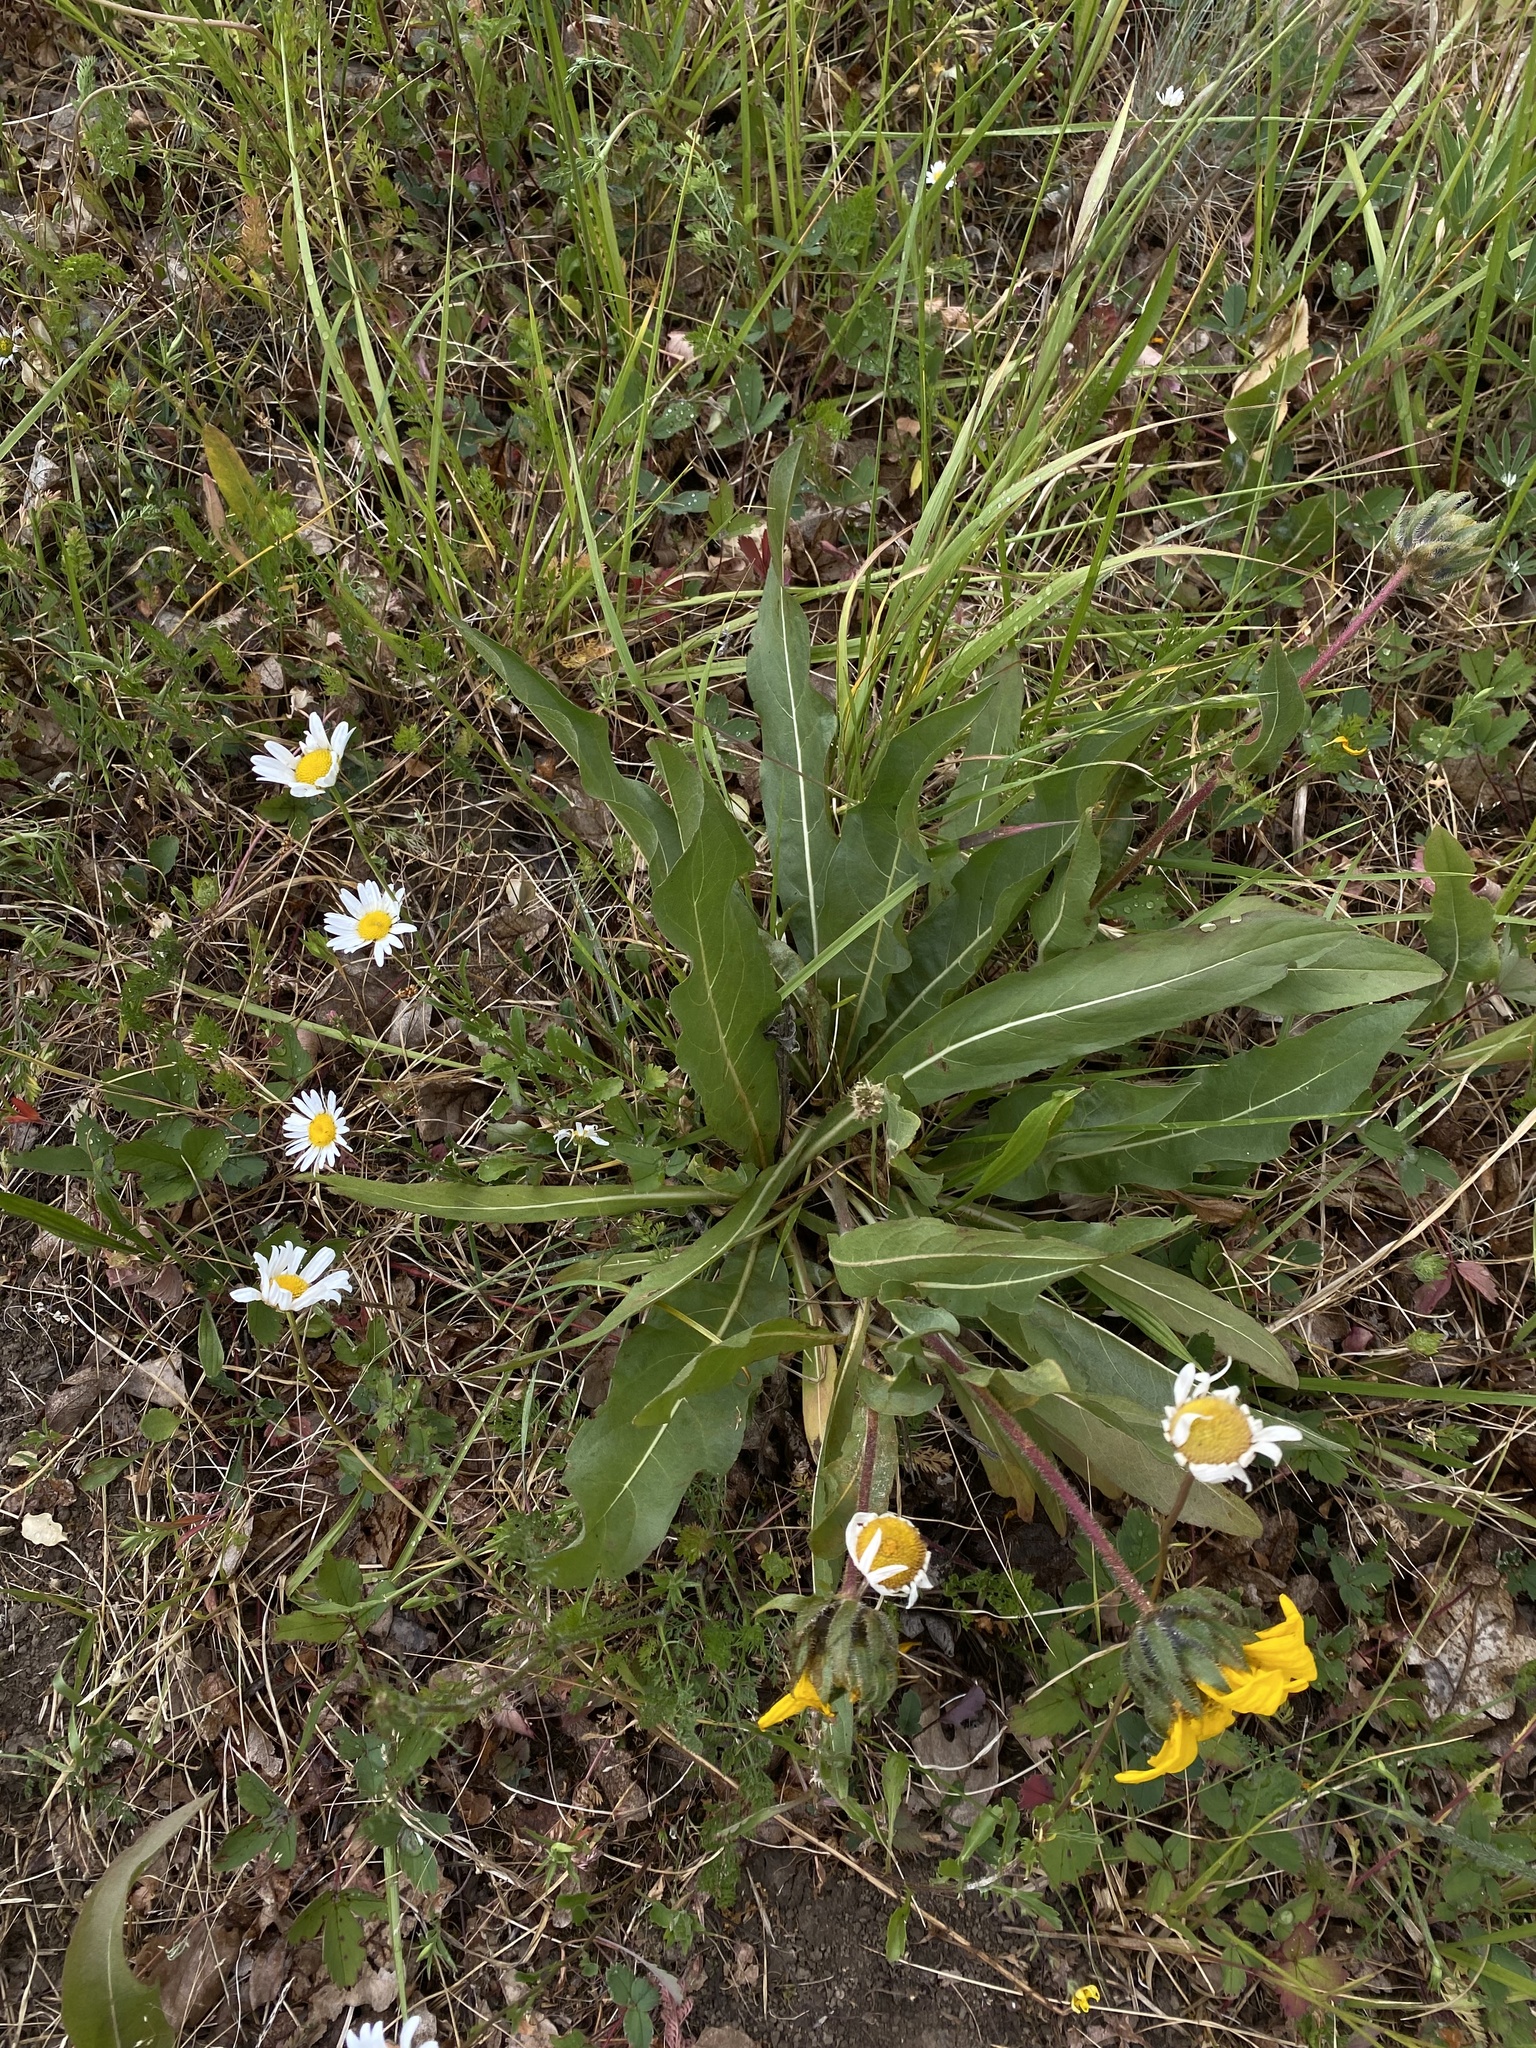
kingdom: Plantae
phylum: Tracheophyta
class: Magnoliopsida
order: Asterales
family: Asteraceae
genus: Wyethia
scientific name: Wyethia angustifolia
